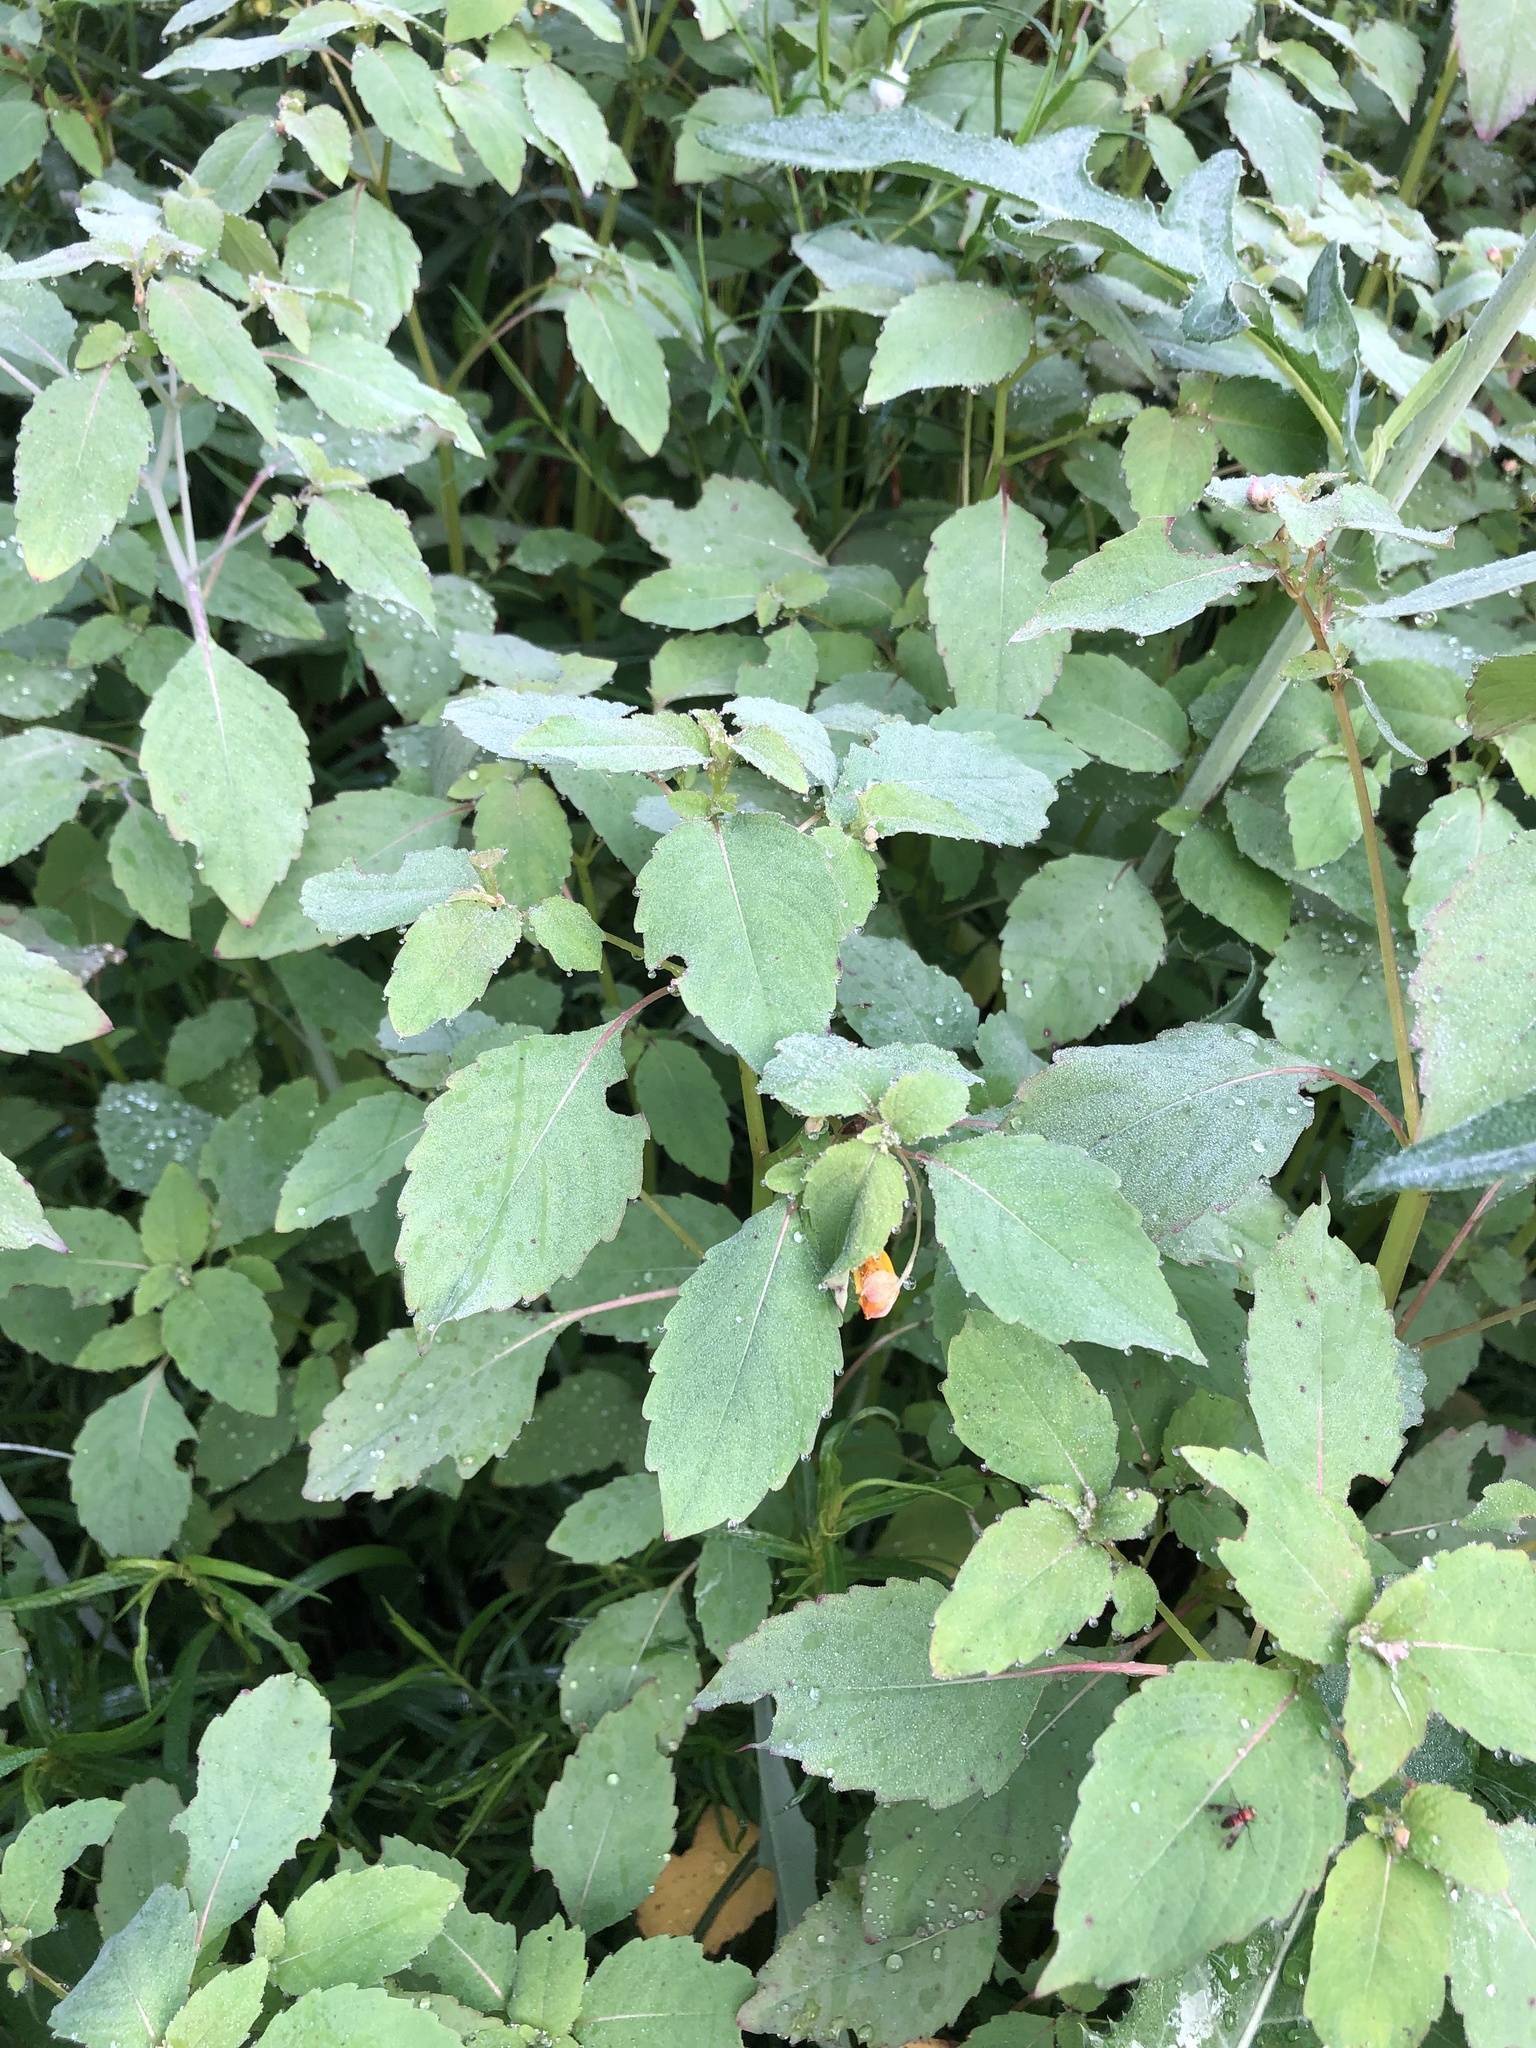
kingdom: Plantae
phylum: Tracheophyta
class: Magnoliopsida
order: Ericales
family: Balsaminaceae
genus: Impatiens
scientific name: Impatiens capensis
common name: Orange balsam
